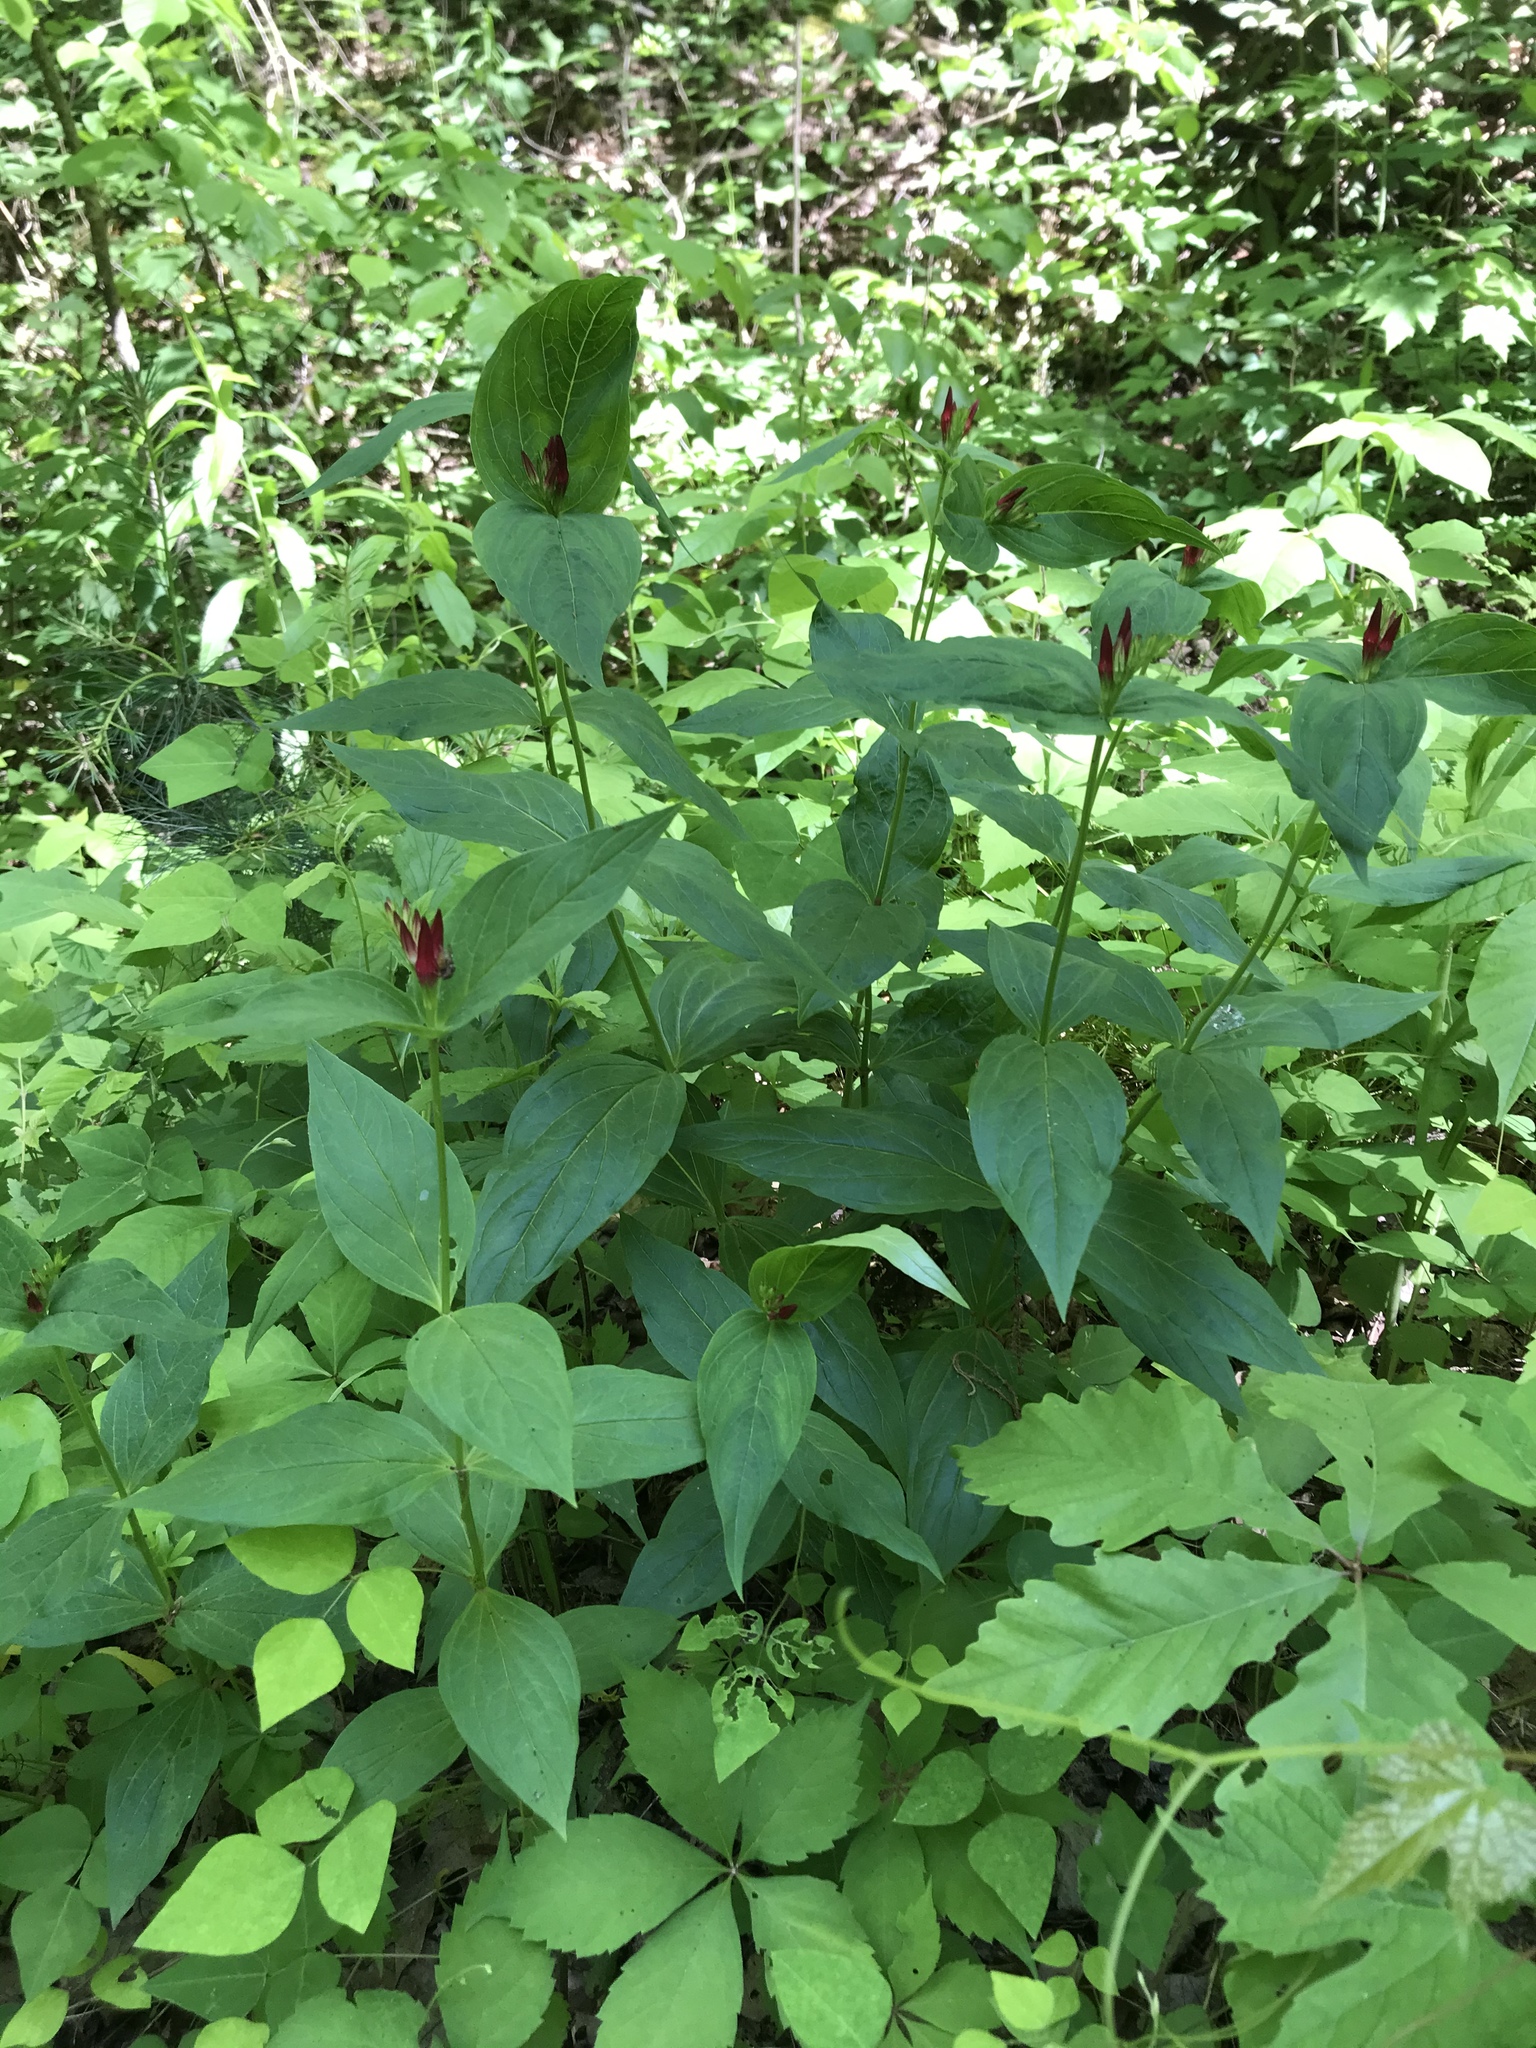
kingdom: Plantae
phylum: Tracheophyta
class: Magnoliopsida
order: Gentianales
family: Loganiaceae
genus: Spigelia
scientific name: Spigelia marilandica
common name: Indian-pink
